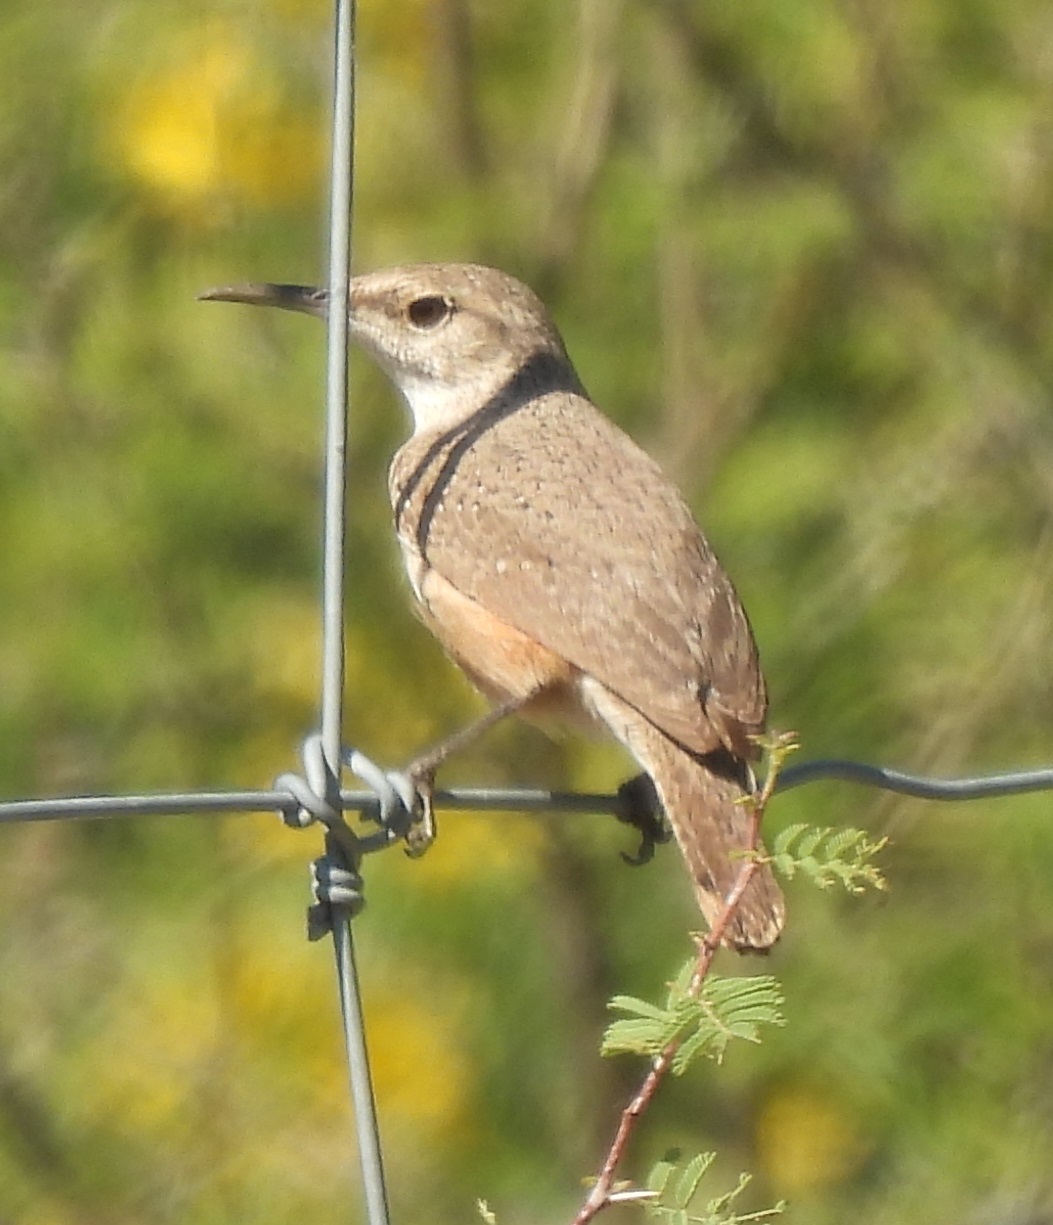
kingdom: Animalia
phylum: Chordata
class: Aves
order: Passeriformes
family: Troglodytidae
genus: Salpinctes
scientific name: Salpinctes obsoletus
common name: Rock wren
